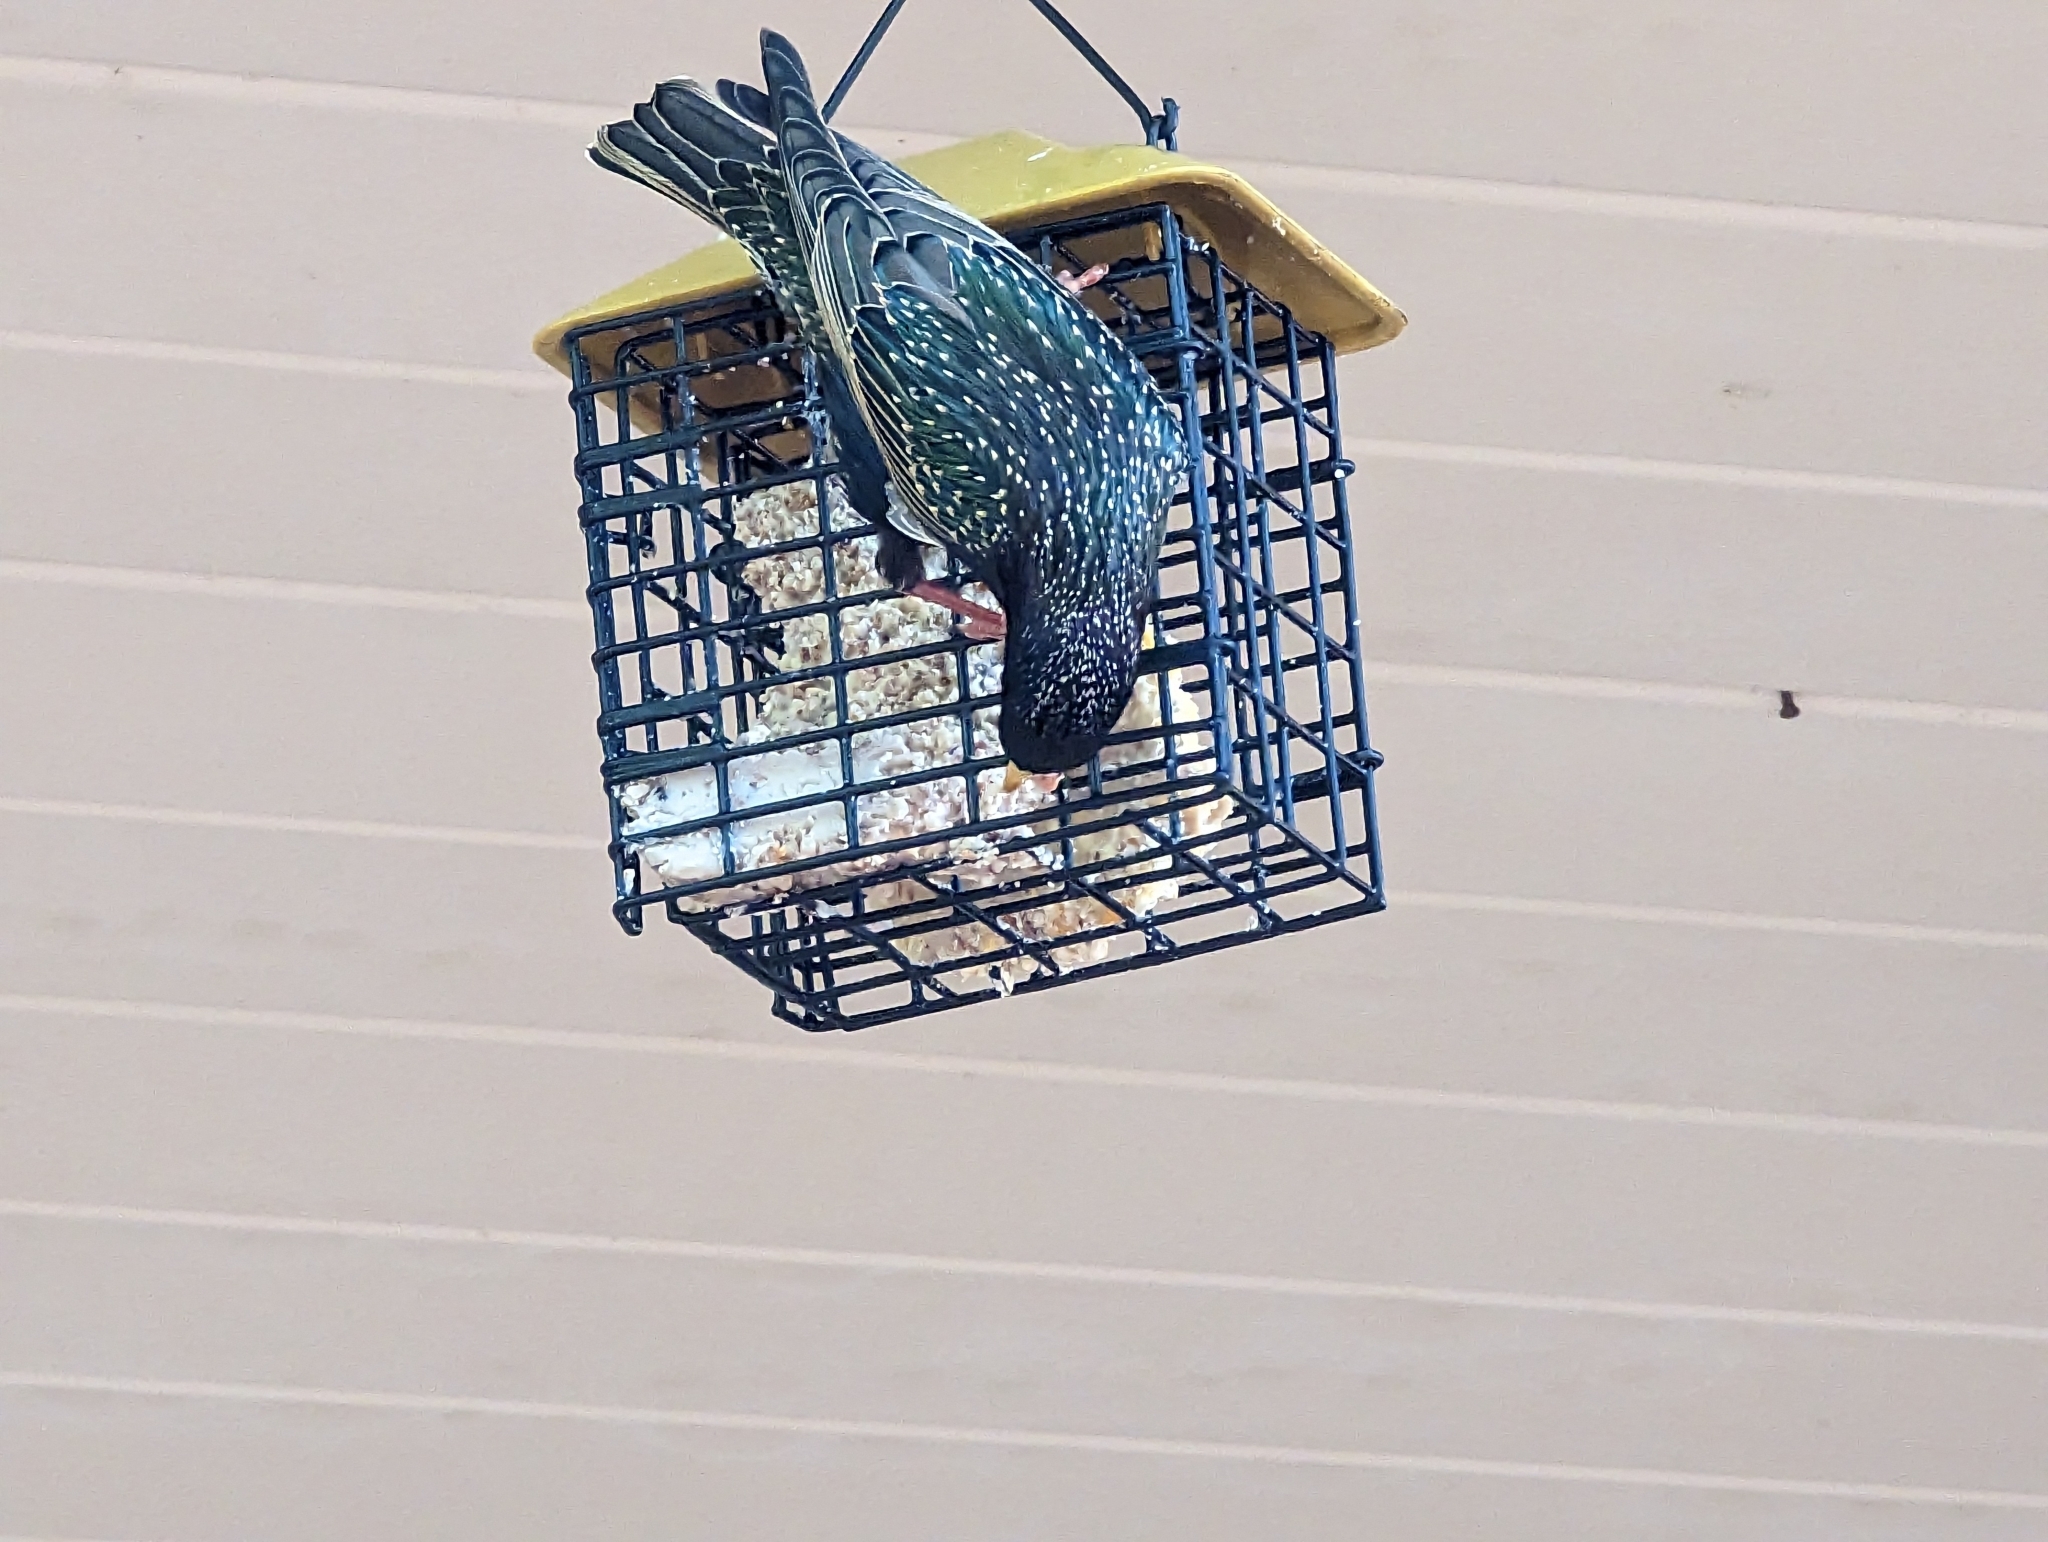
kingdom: Animalia
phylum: Chordata
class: Aves
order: Passeriformes
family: Sturnidae
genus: Sturnus
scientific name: Sturnus vulgaris
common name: Common starling
